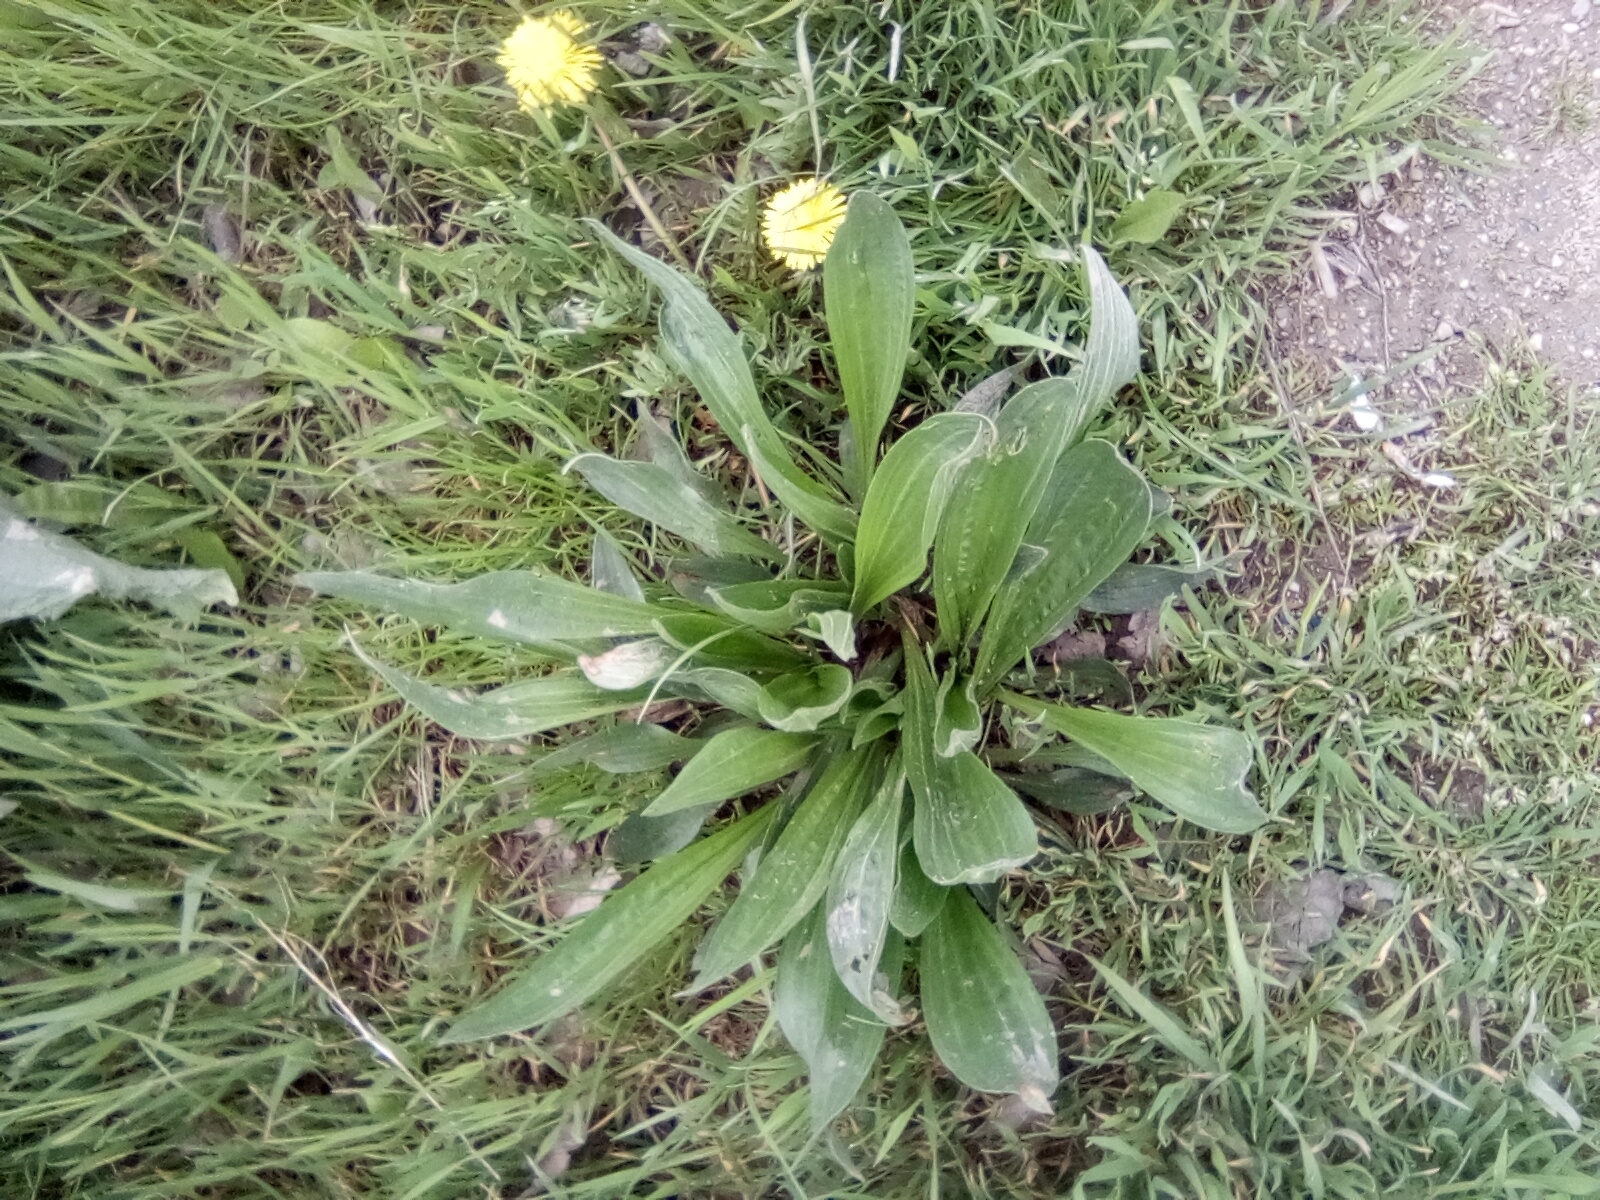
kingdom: Plantae
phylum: Tracheophyta
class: Magnoliopsida
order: Lamiales
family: Plantaginaceae
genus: Plantago
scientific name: Plantago lanceolata
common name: Ribwort plantain
